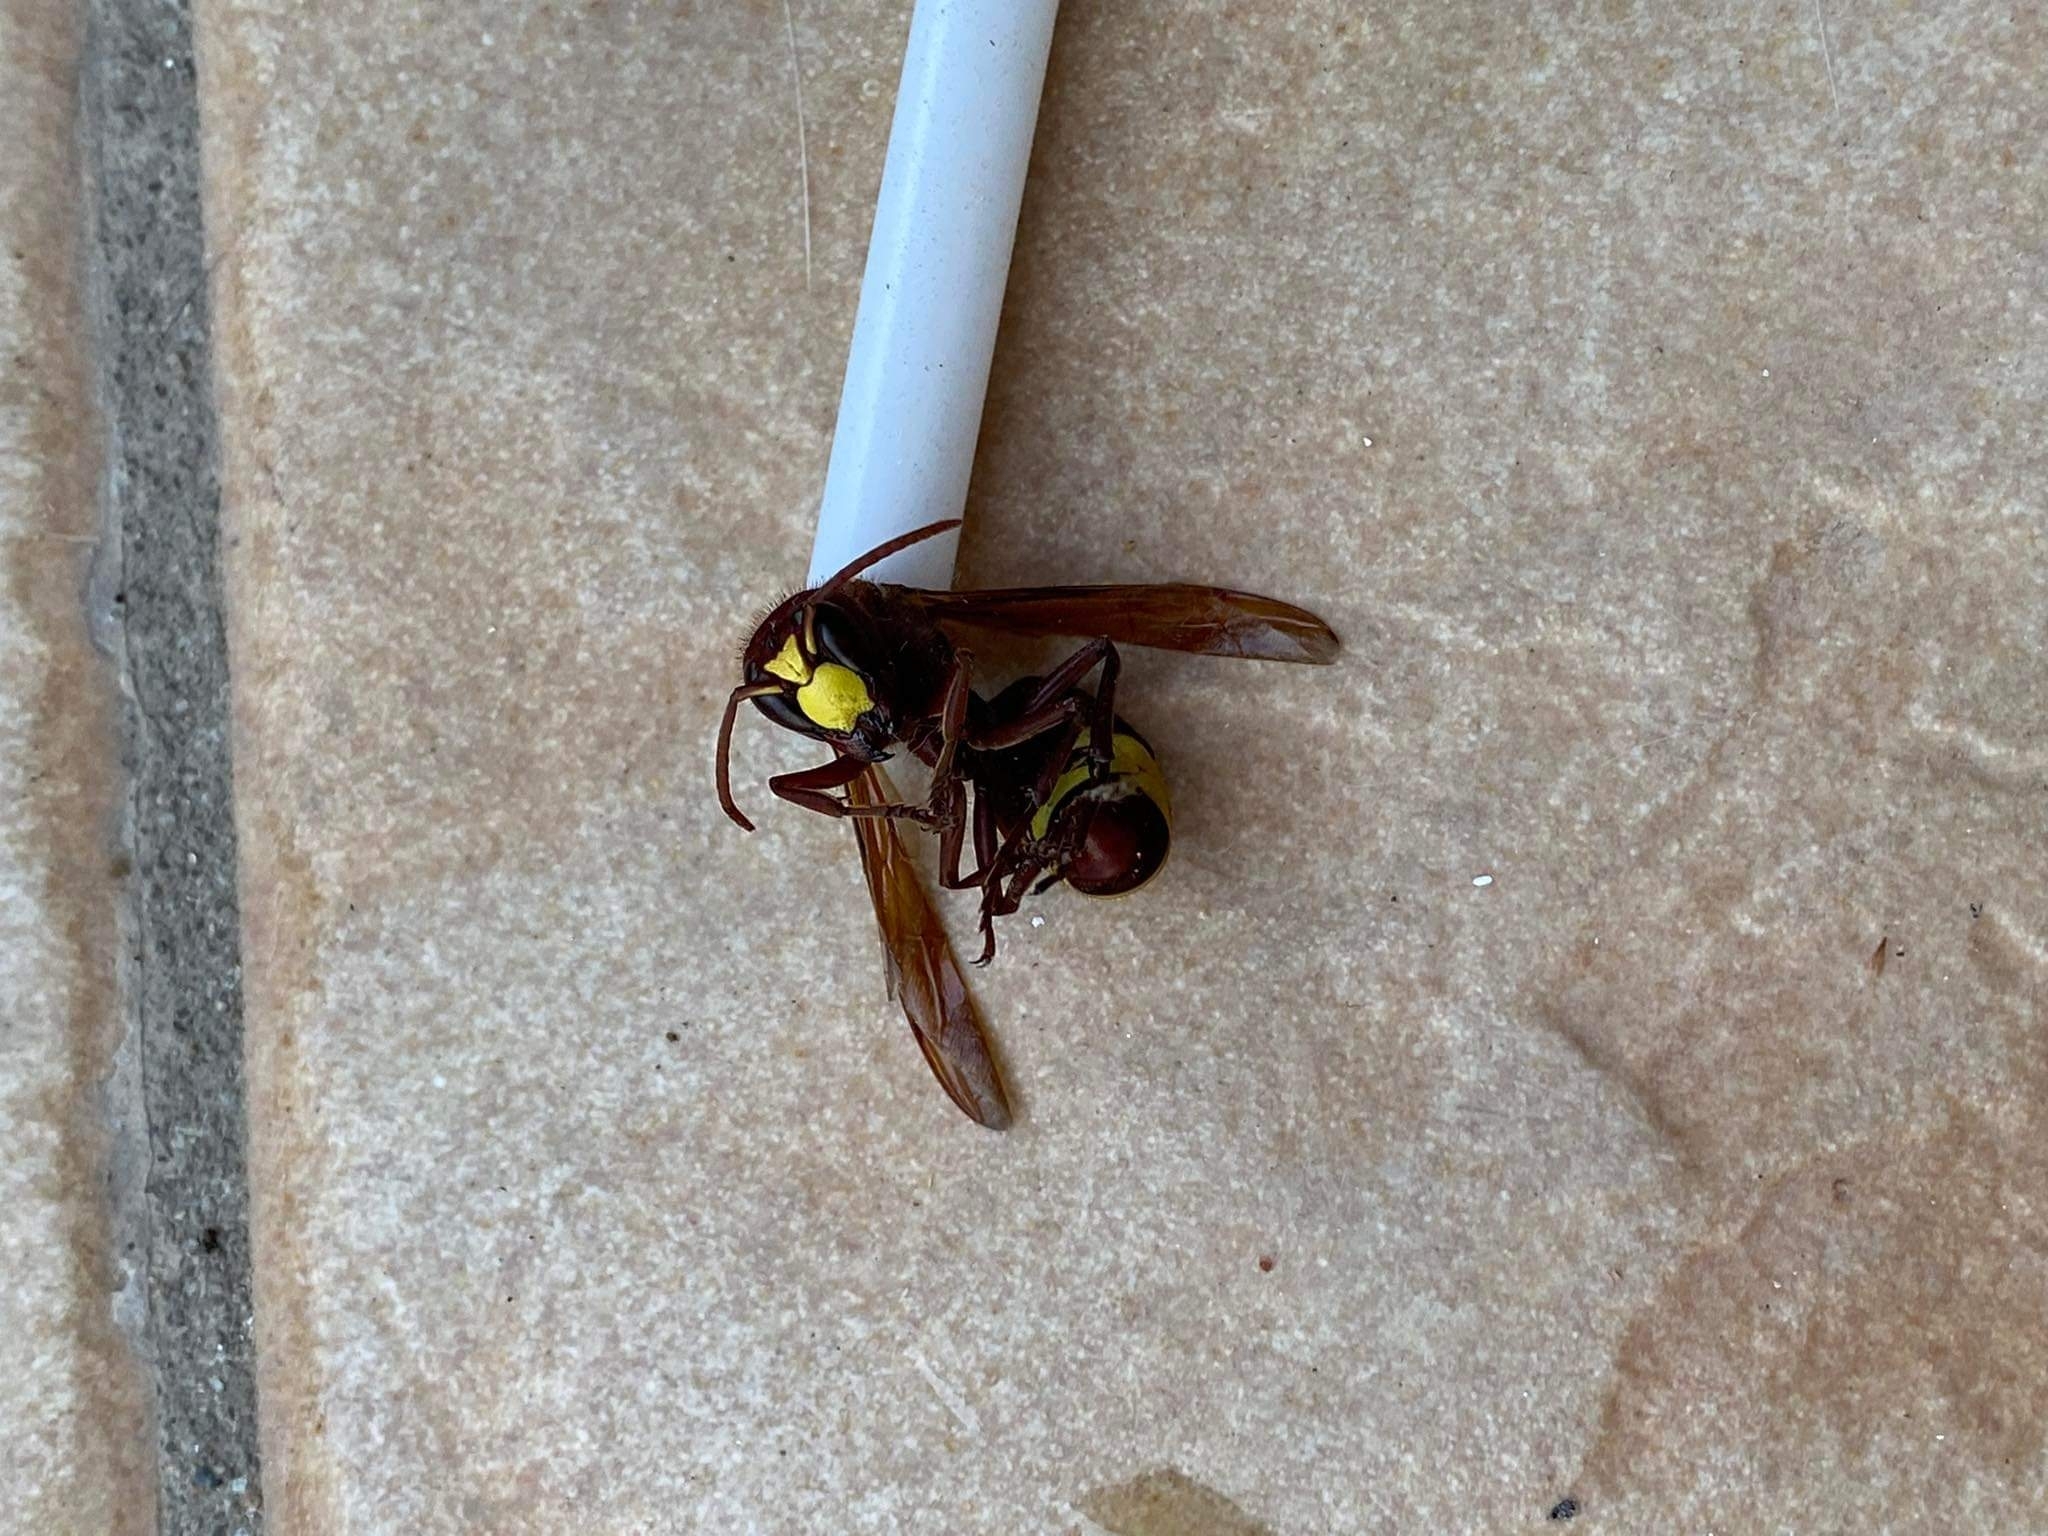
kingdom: Animalia
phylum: Arthropoda
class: Insecta
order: Hymenoptera
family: Vespidae
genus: Vespa
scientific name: Vespa orientalis
